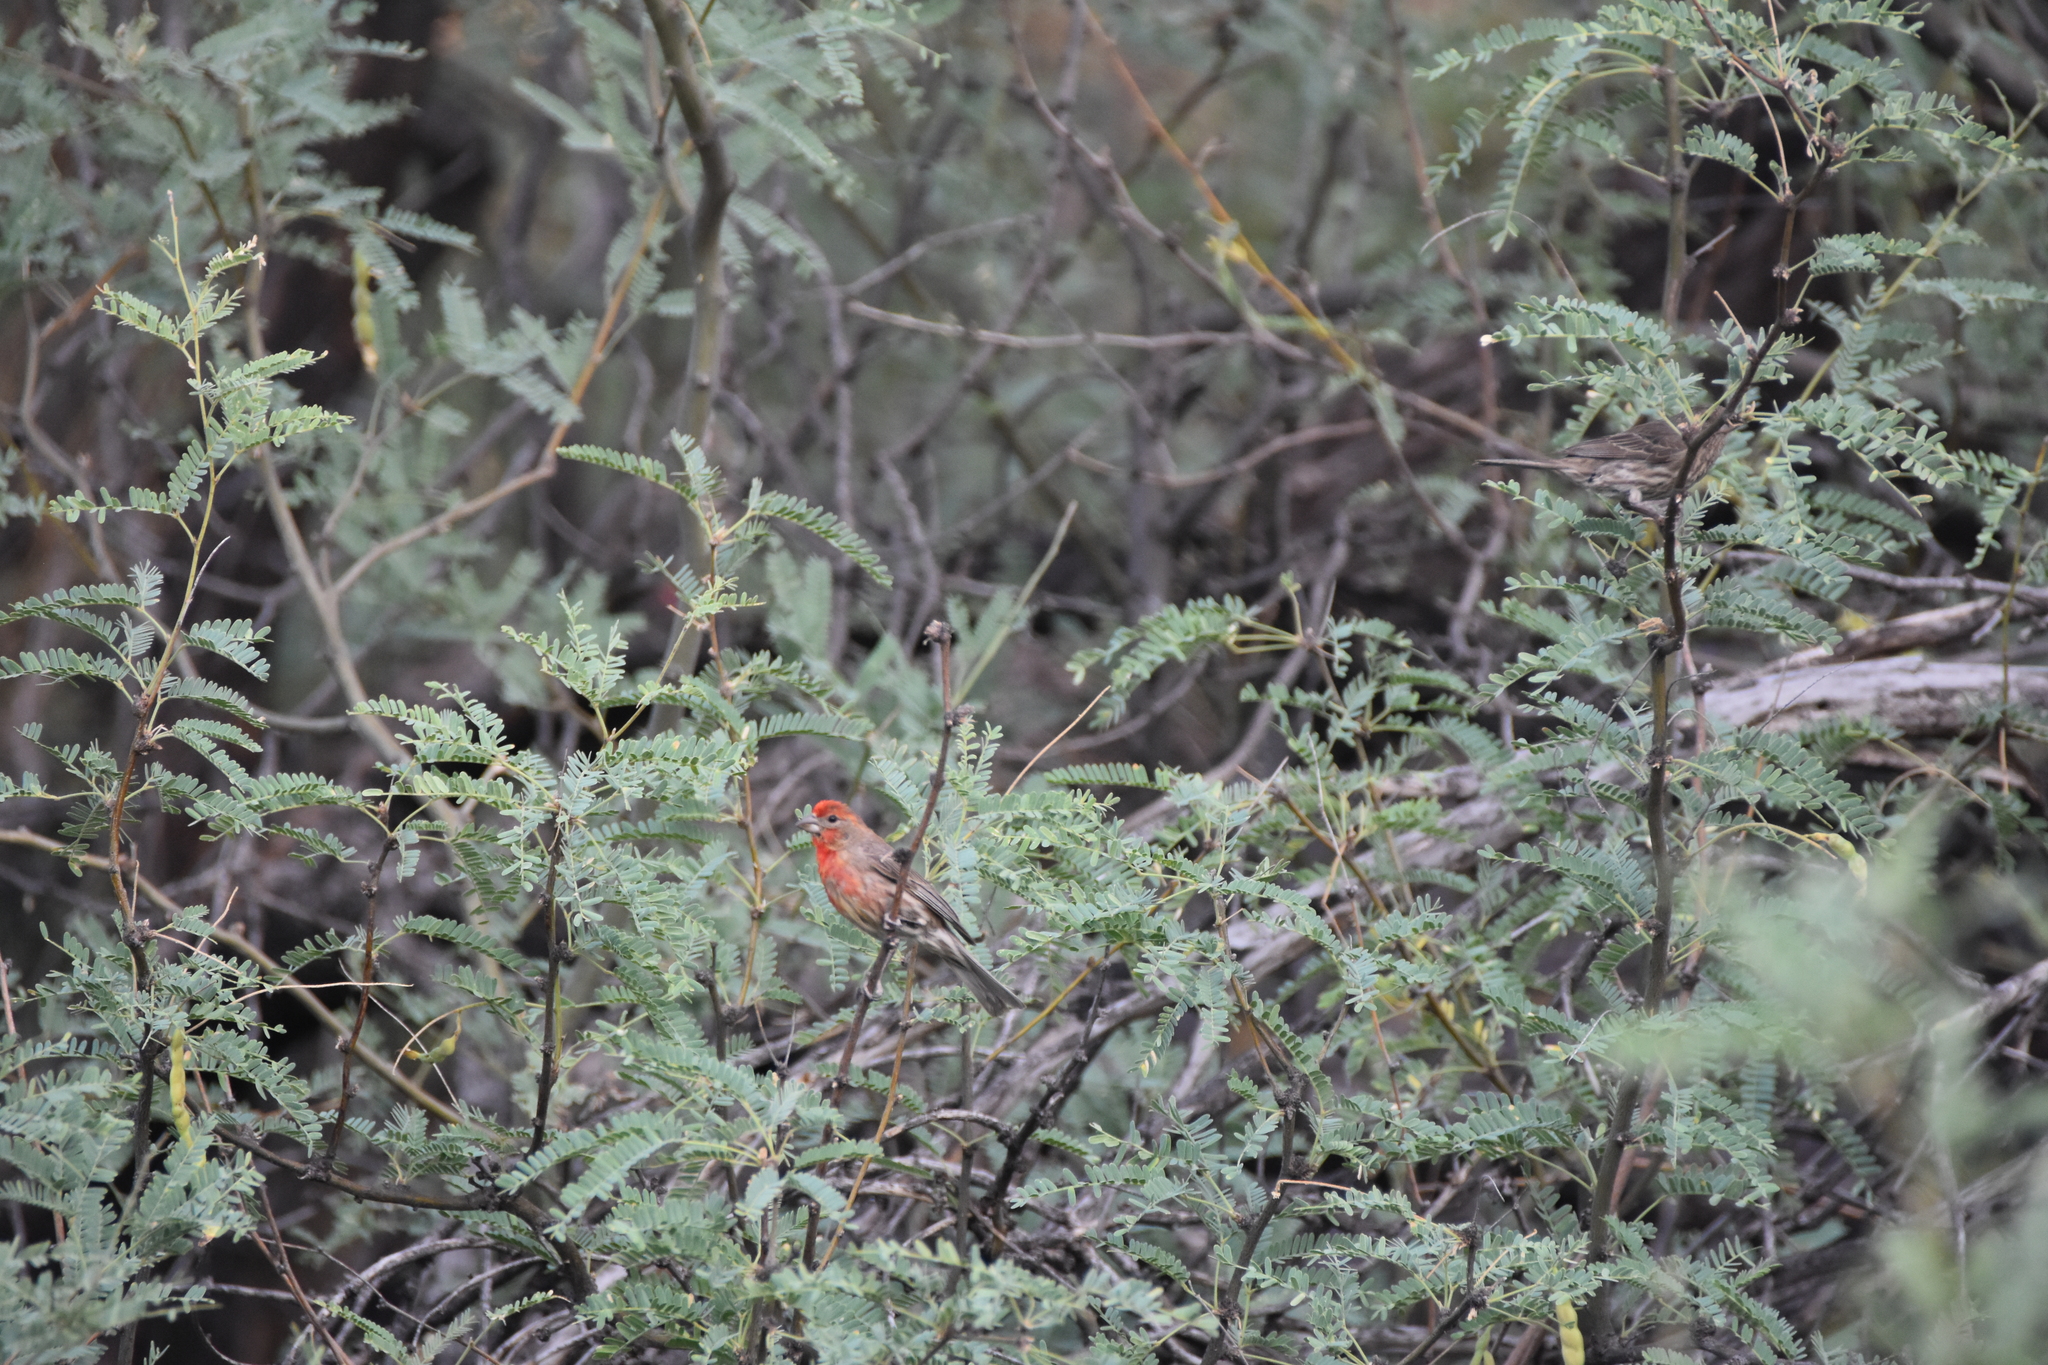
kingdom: Animalia
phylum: Chordata
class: Aves
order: Passeriformes
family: Fringillidae
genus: Haemorhous
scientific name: Haemorhous mexicanus
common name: House finch
